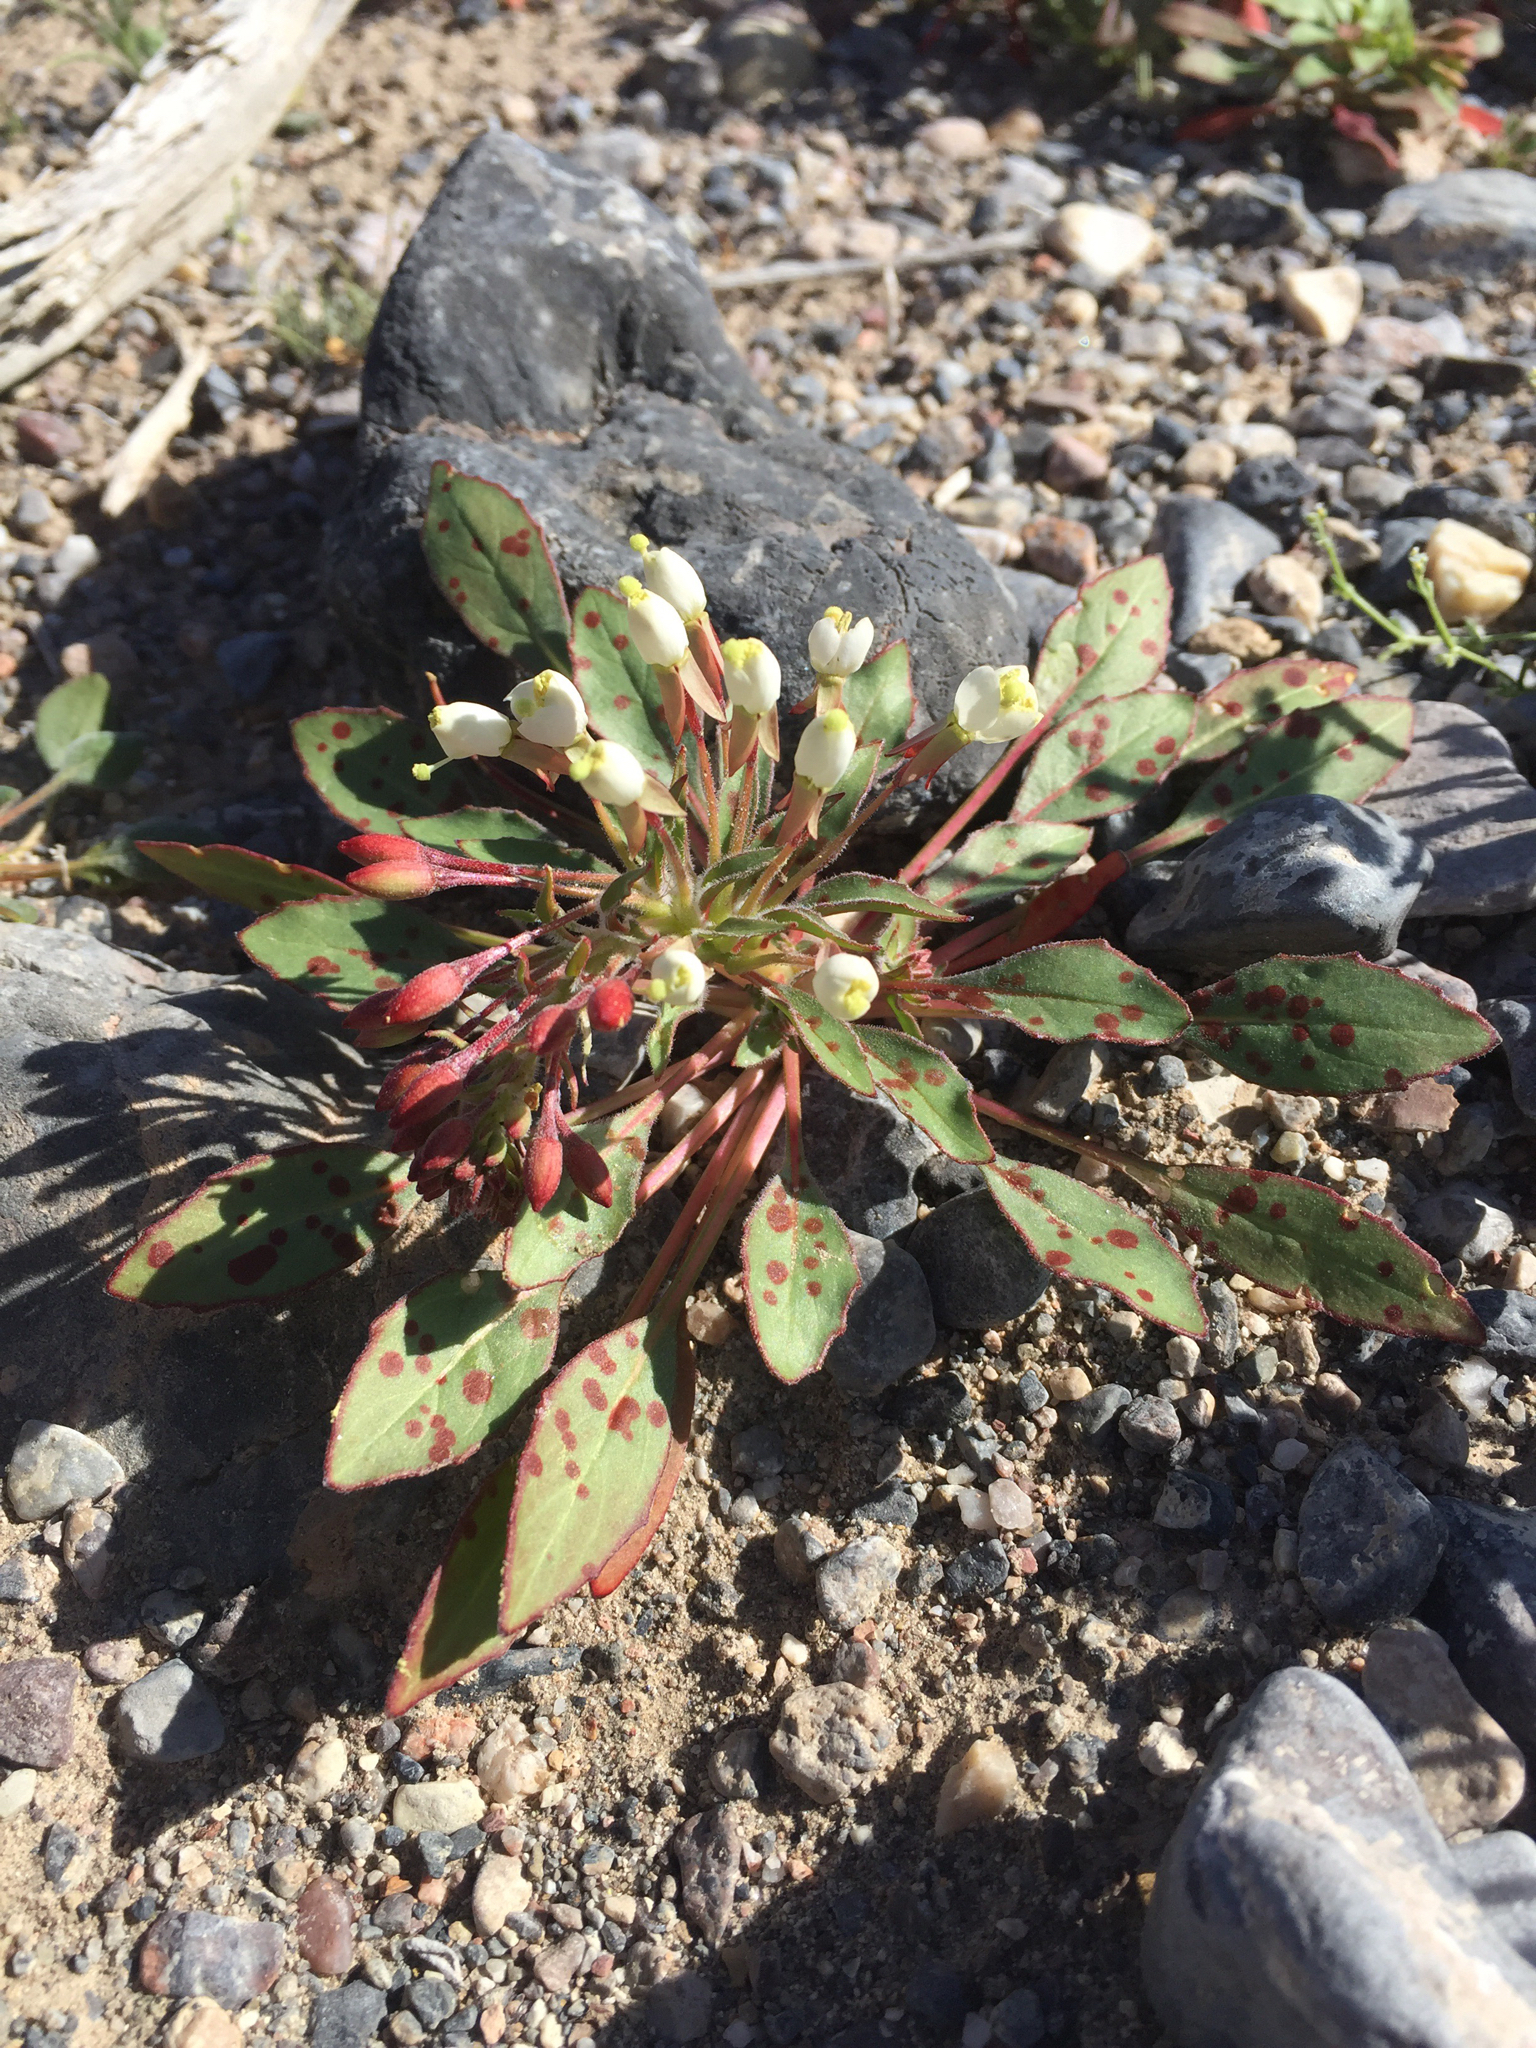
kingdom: Plantae
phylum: Tracheophyta
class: Magnoliopsida
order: Myrtales
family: Onagraceae
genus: Eremothera
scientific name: Eremothera boothii
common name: Booth's evening primrose
